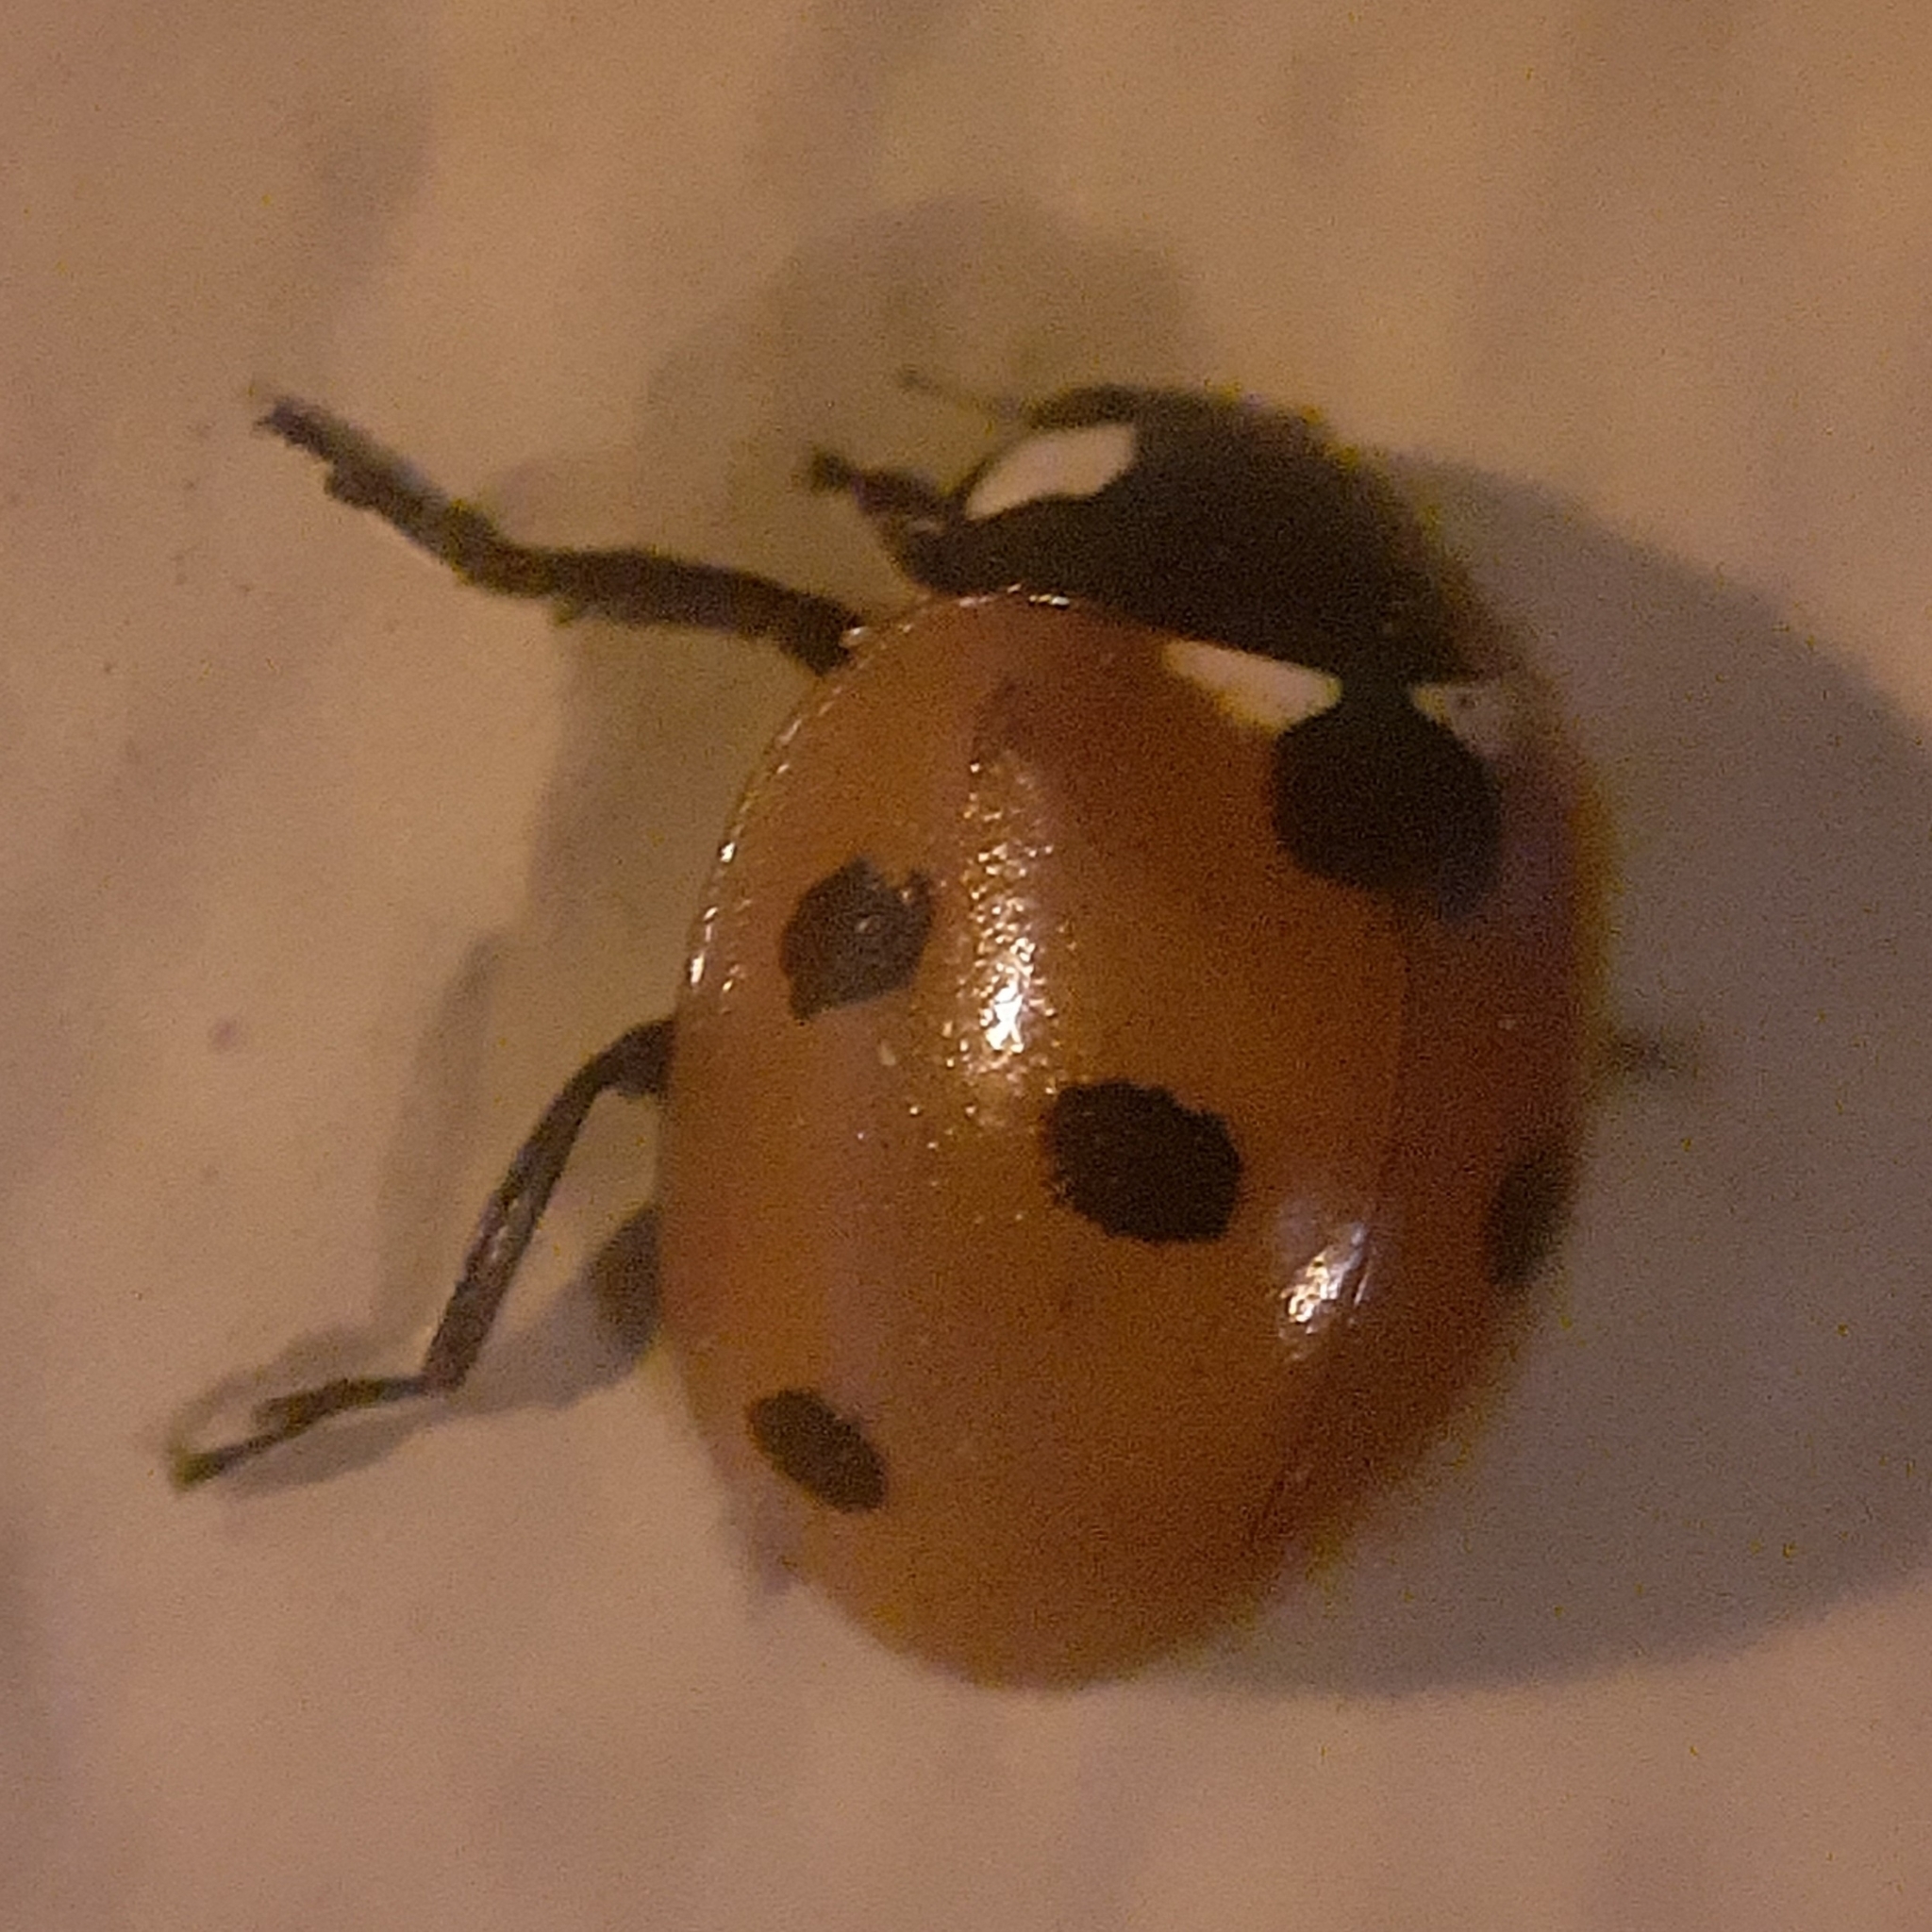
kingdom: Animalia
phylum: Arthropoda
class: Insecta
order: Coleoptera
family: Coccinellidae
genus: Coccinella
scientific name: Coccinella septempunctata
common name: Sevenspotted lady beetle
